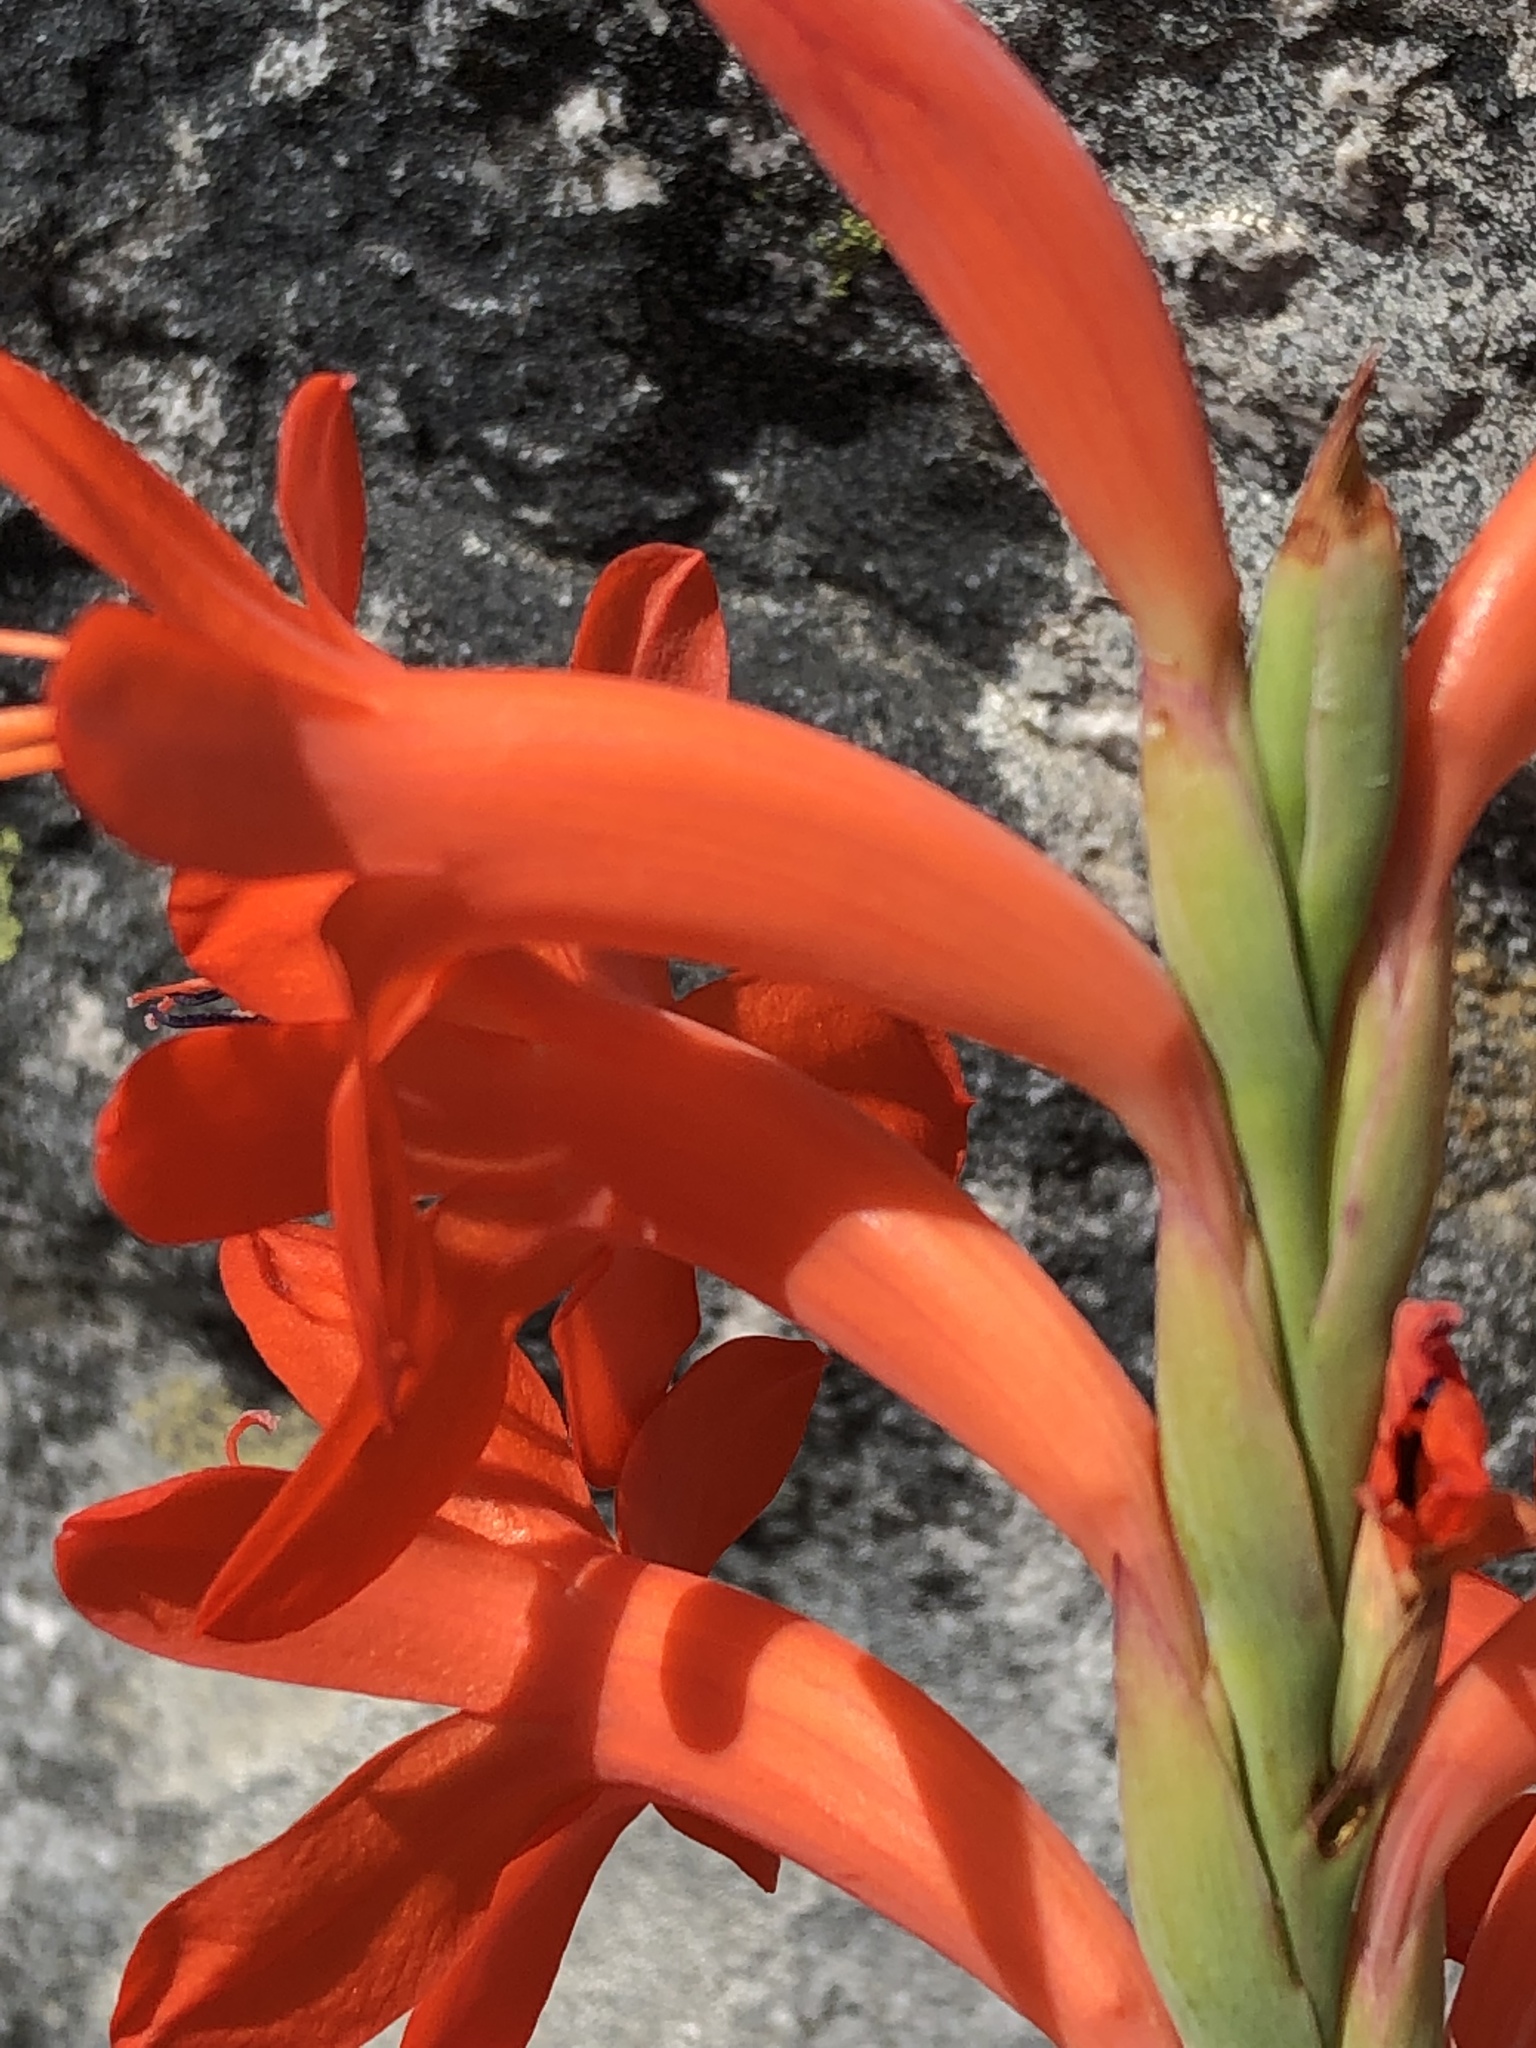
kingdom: Plantae
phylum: Tracheophyta
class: Liliopsida
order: Asparagales
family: Iridaceae
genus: Watsonia
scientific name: Watsonia schlechteri
